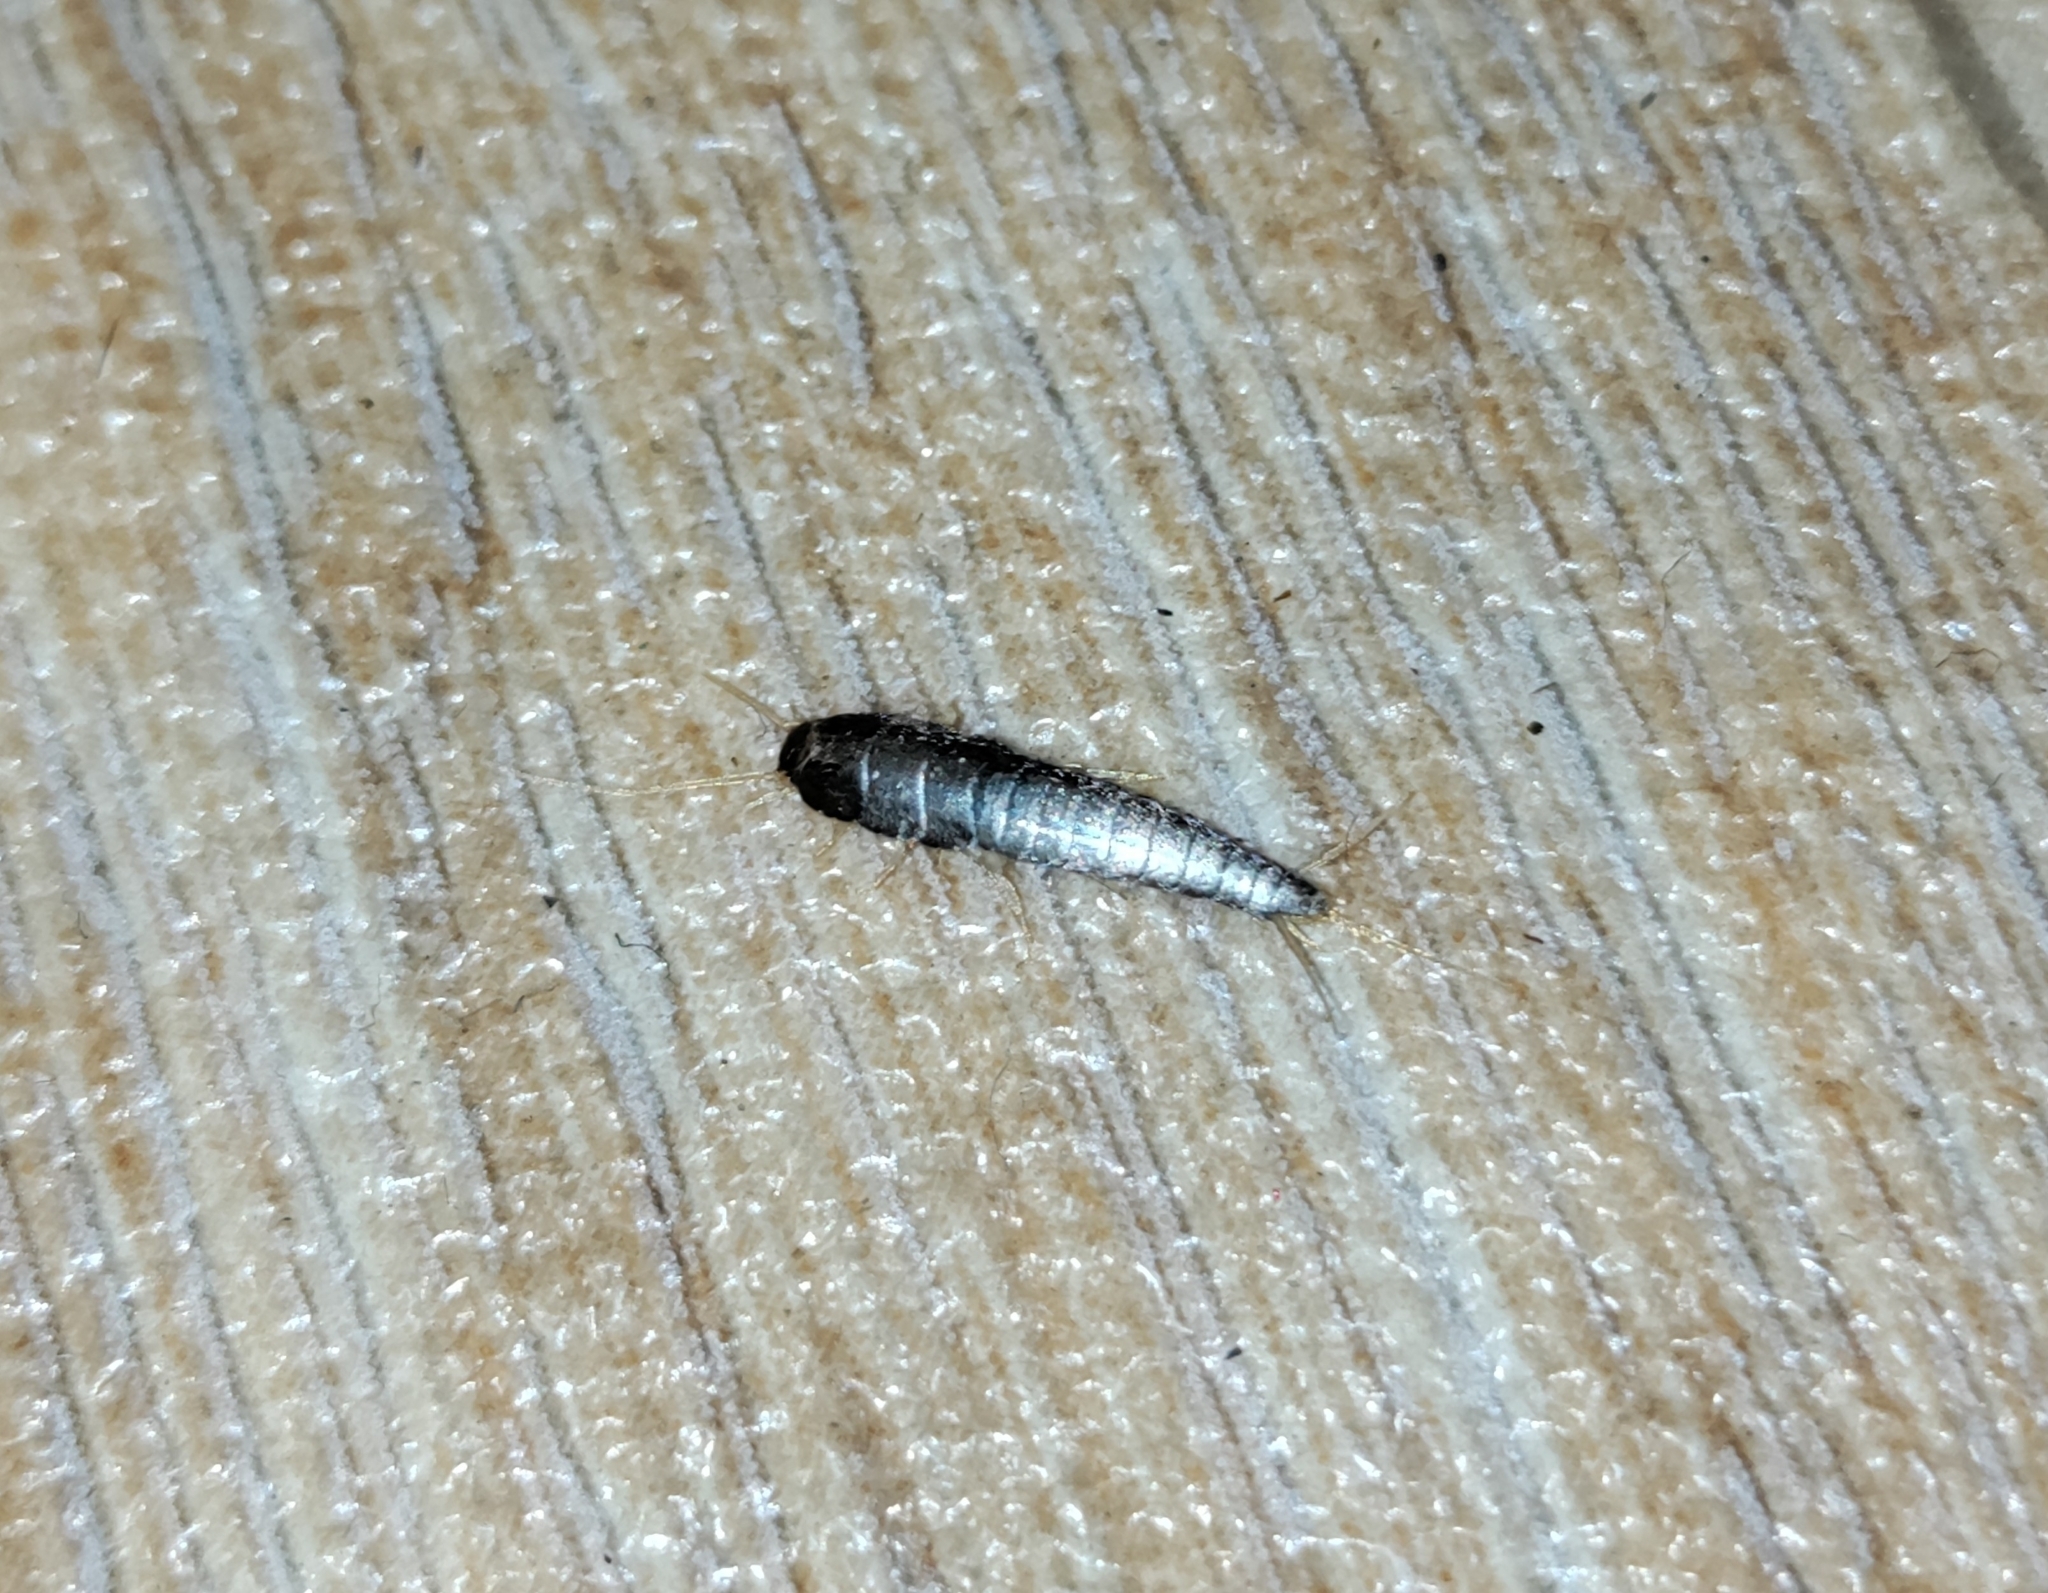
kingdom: Animalia
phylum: Arthropoda
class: Insecta
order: Zygentoma
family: Lepismatidae
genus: Lepisma
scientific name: Lepisma saccharinum
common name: Silverfish
